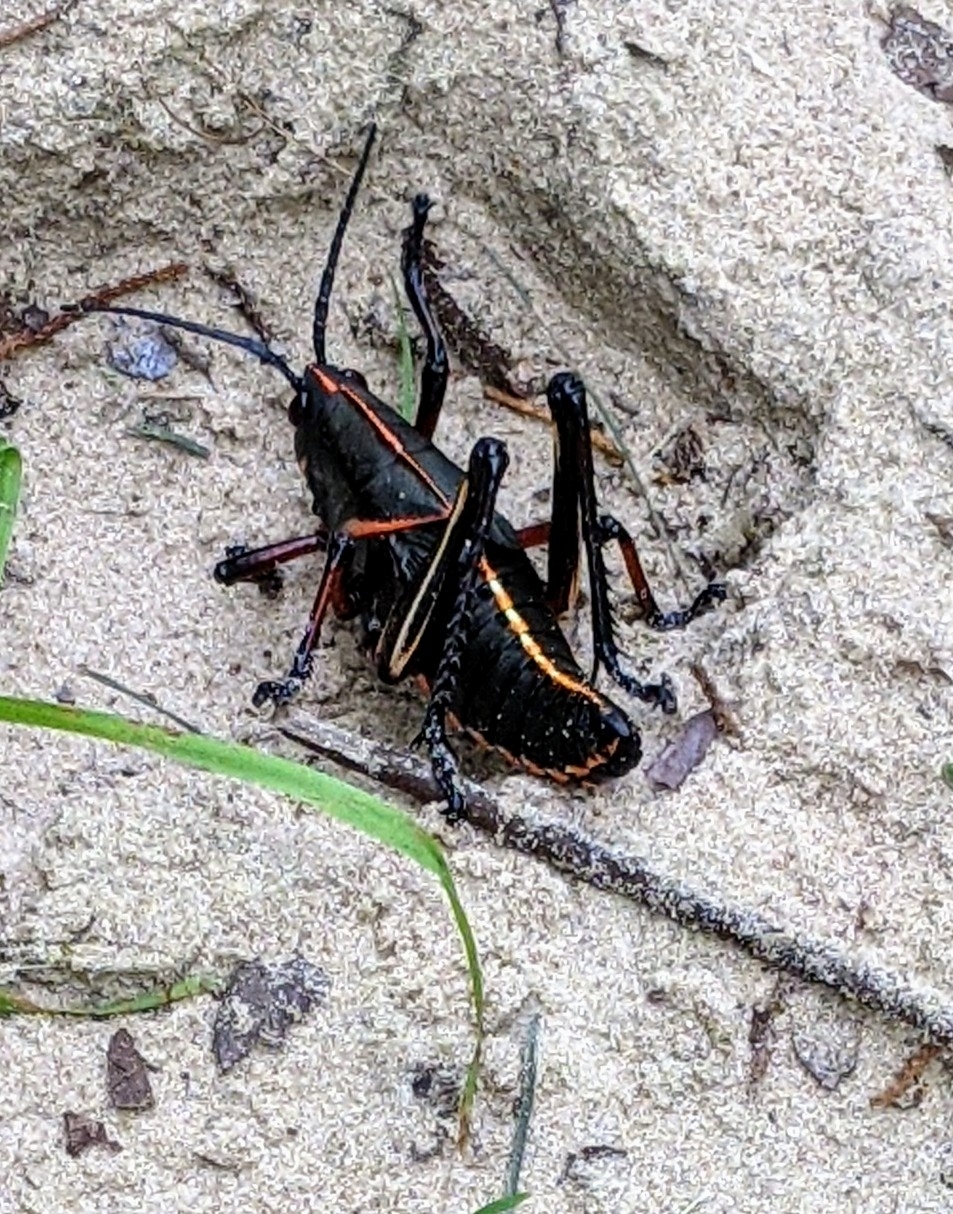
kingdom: Animalia
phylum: Arthropoda
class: Insecta
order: Orthoptera
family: Romaleidae
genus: Romalea
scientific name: Romalea microptera
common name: Eastern lubber grasshopper
